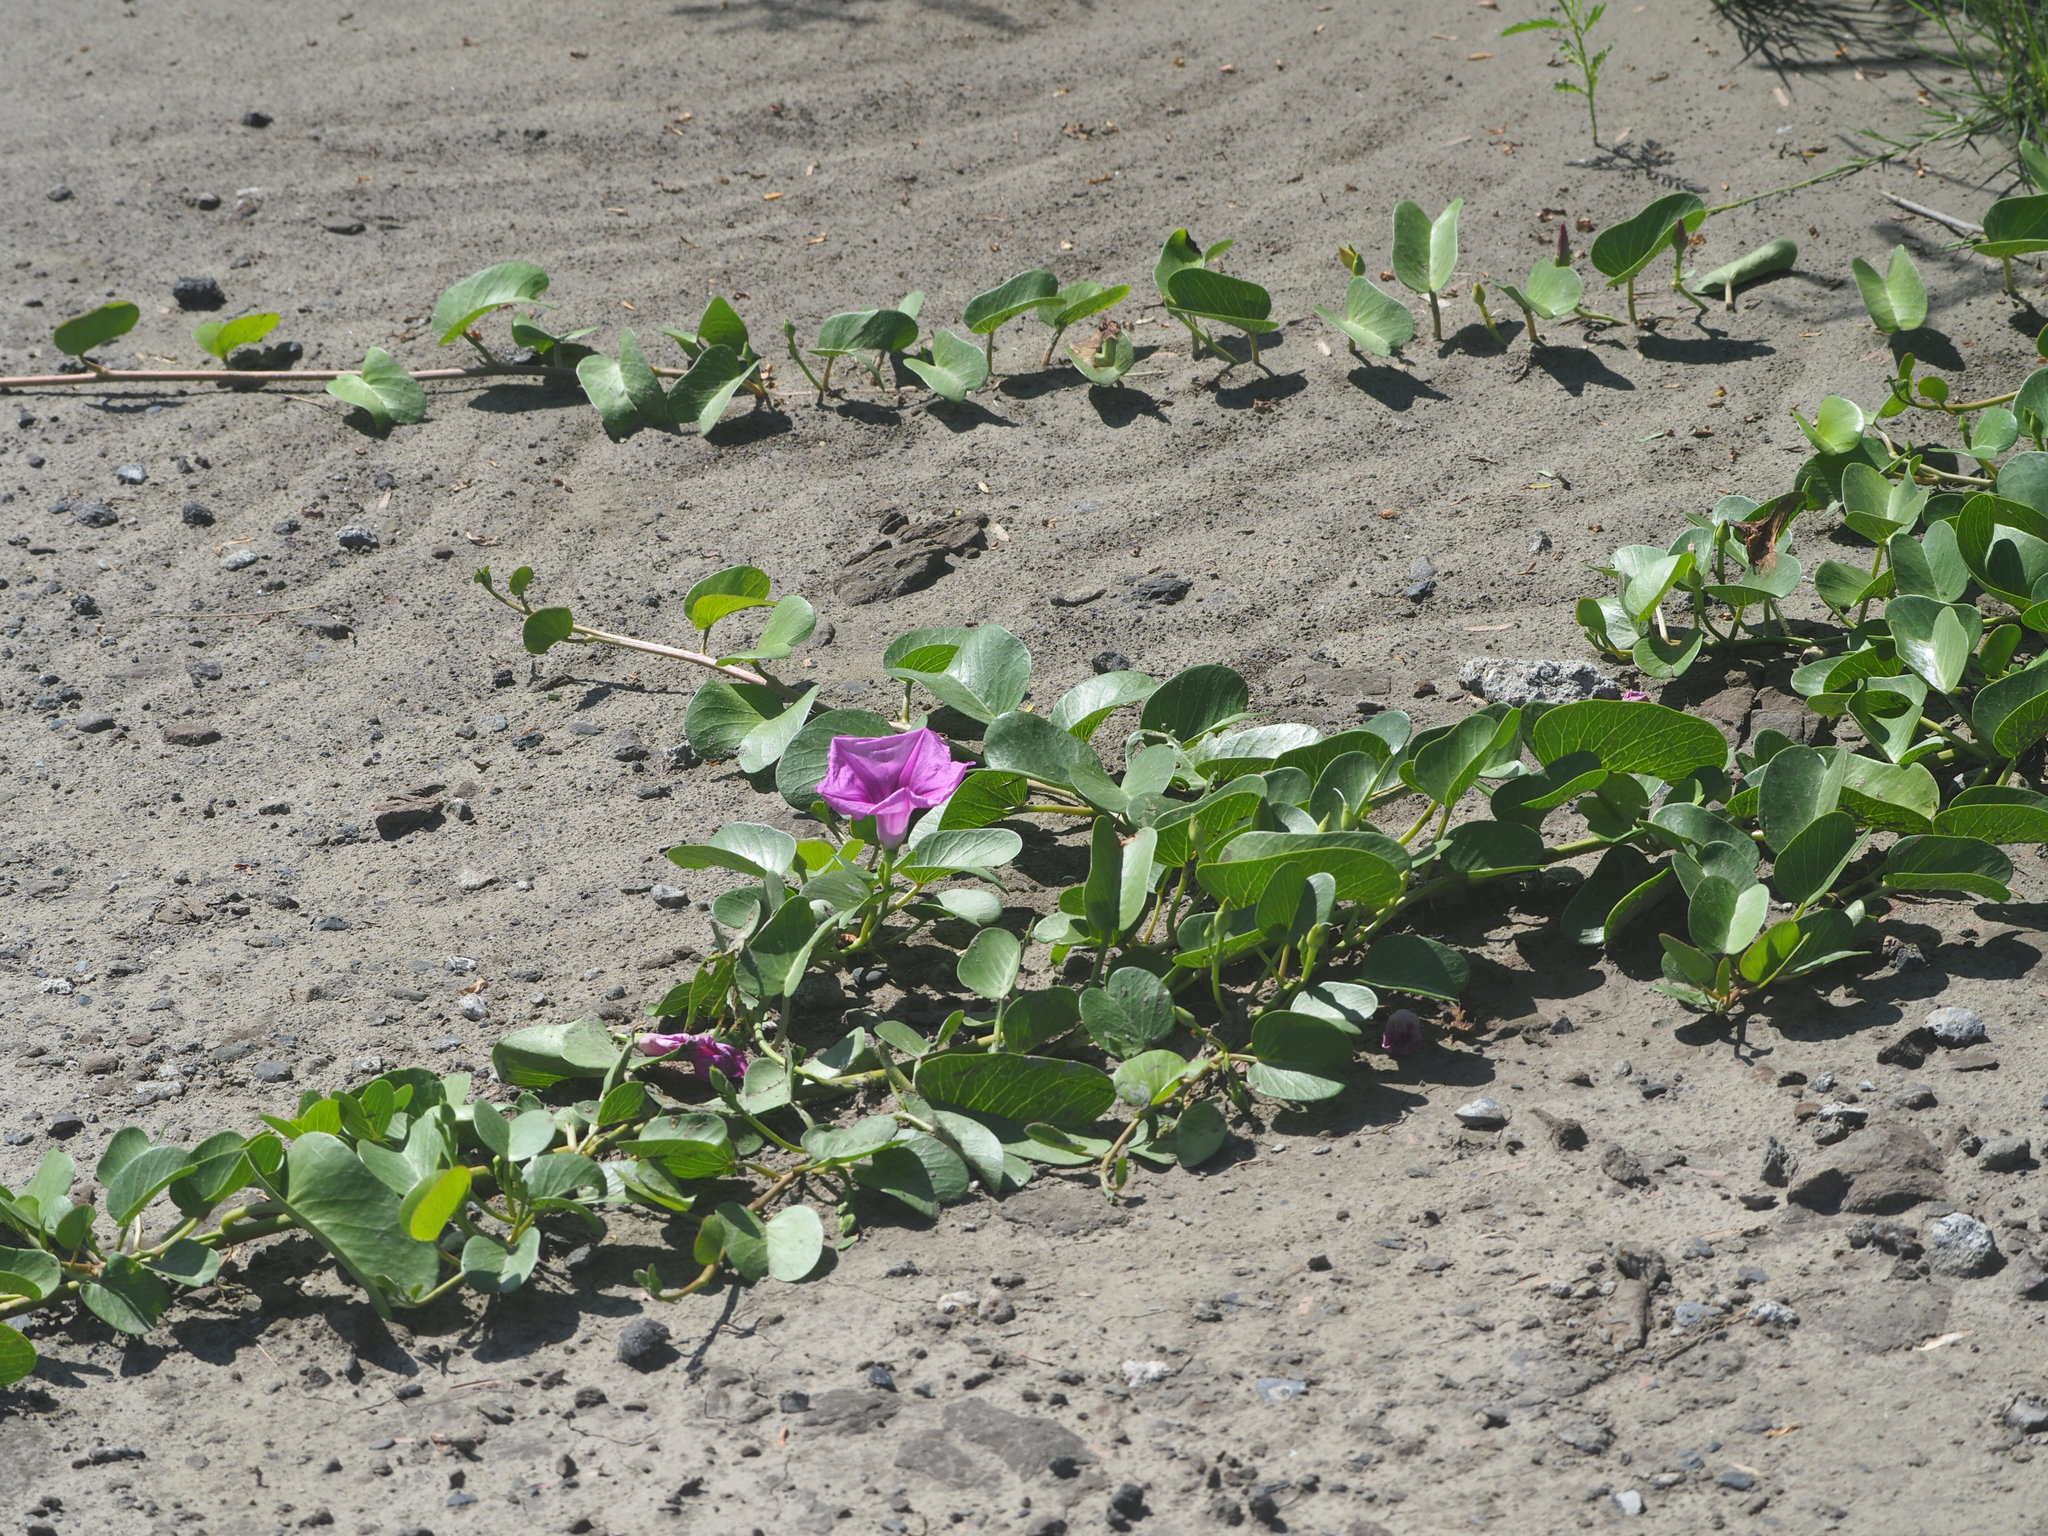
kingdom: Plantae
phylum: Tracheophyta
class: Magnoliopsida
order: Solanales
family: Convolvulaceae
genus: Ipomoea
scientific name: Ipomoea pes-caprae
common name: Beach morning glory
